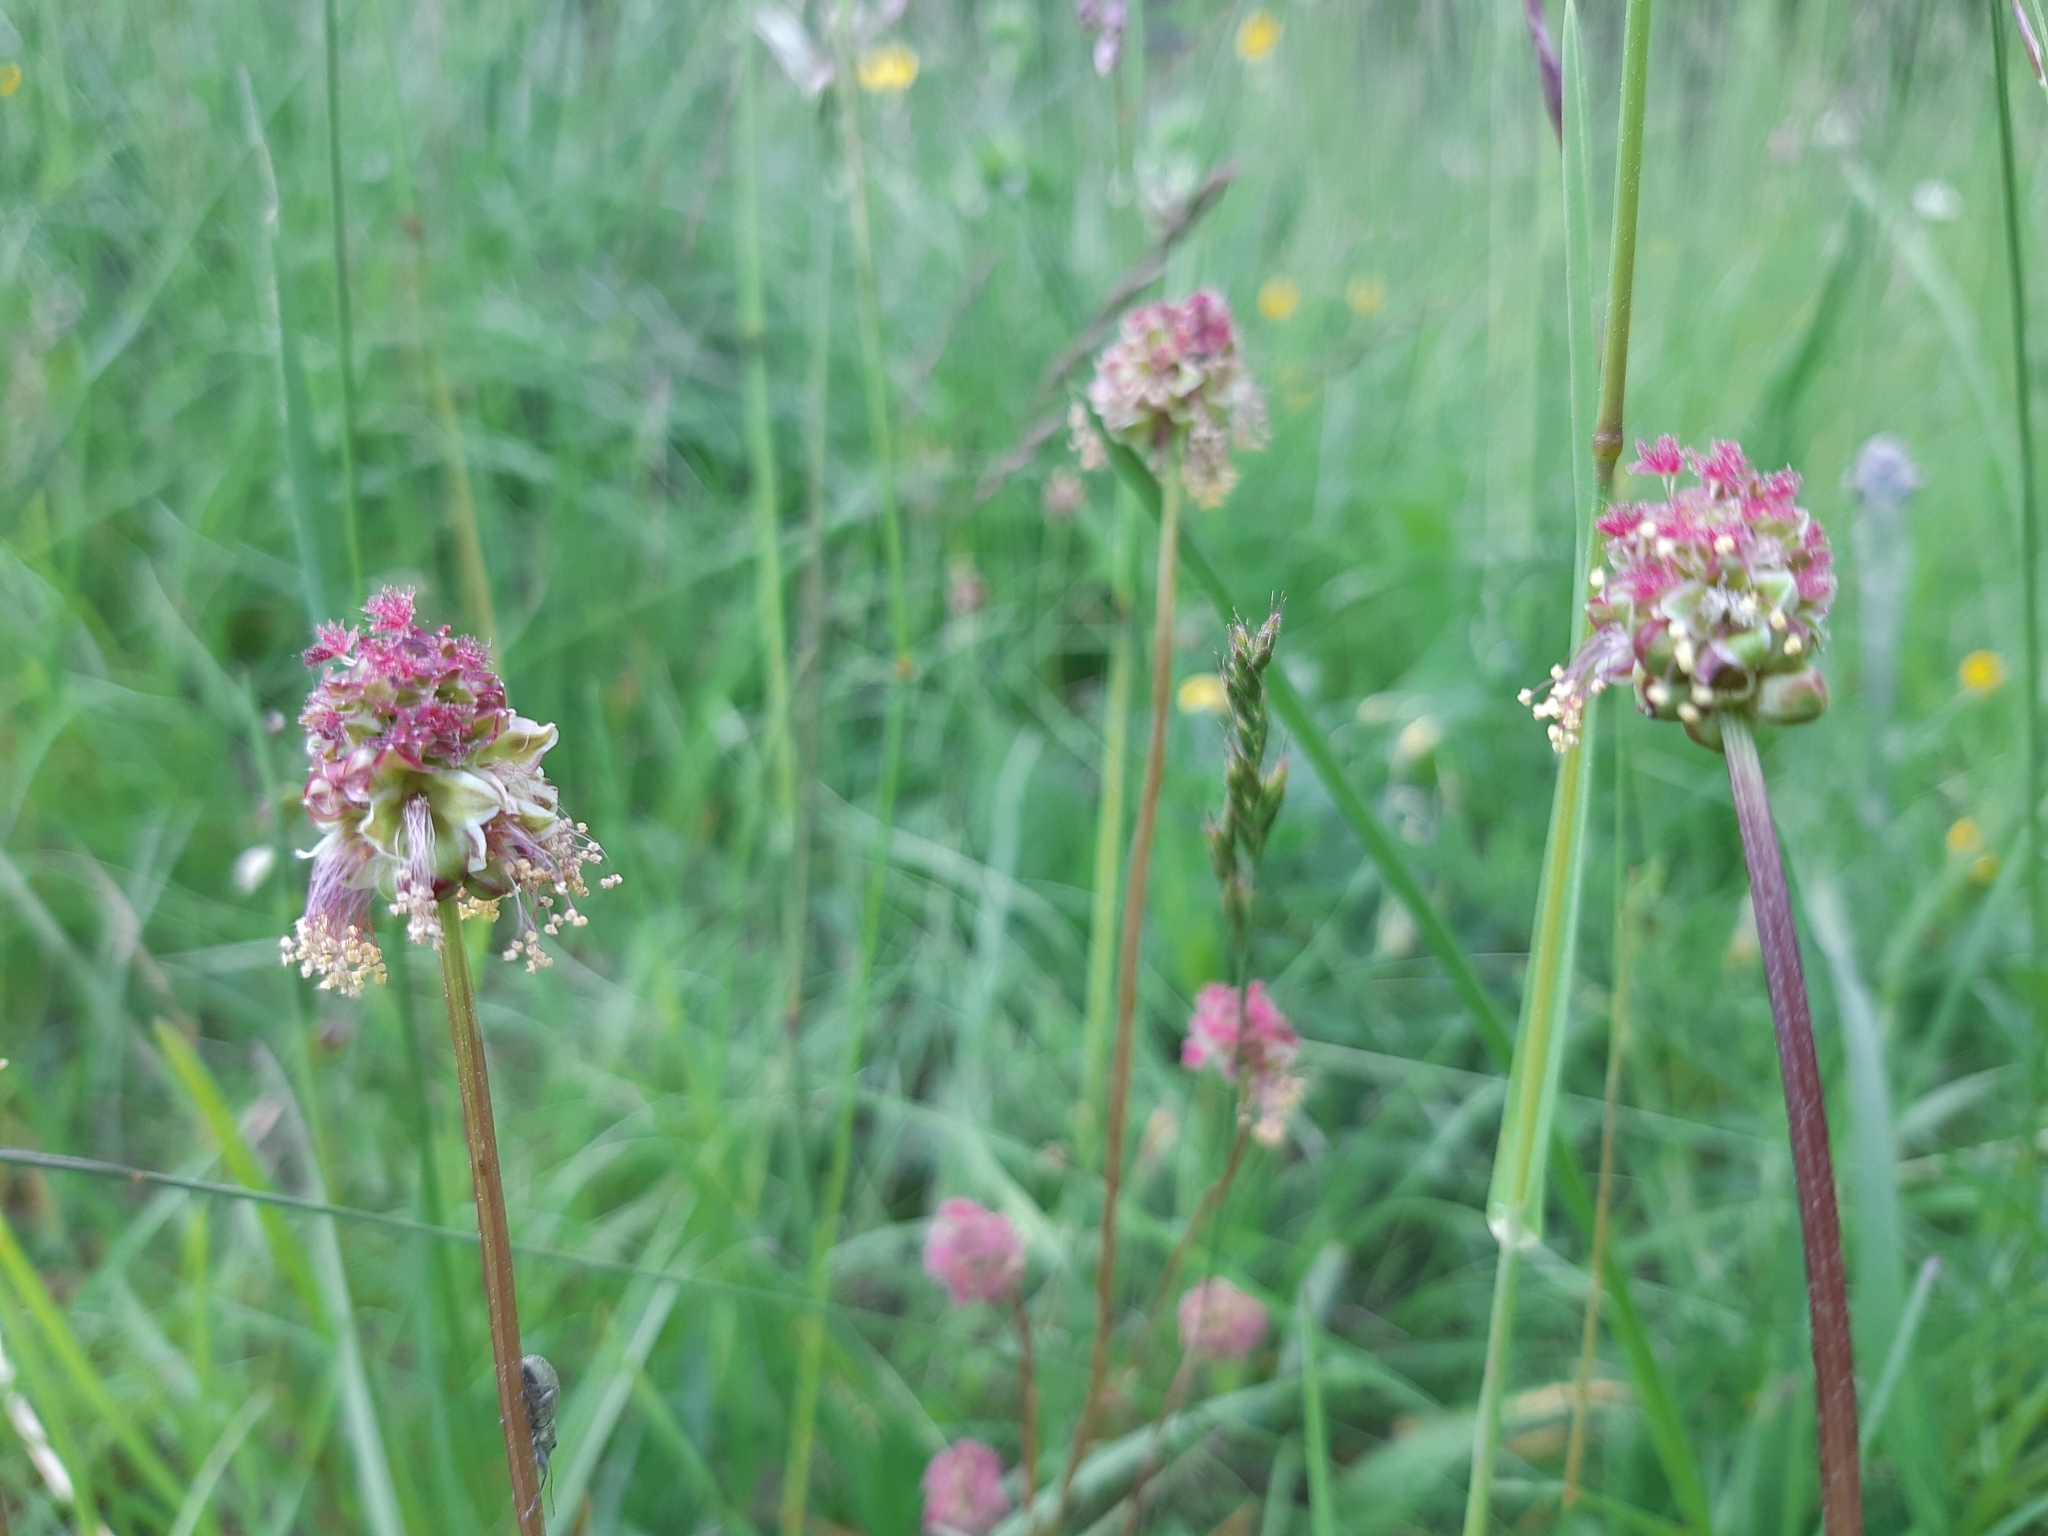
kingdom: Plantae
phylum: Tracheophyta
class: Magnoliopsida
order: Rosales
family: Rosaceae
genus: Poterium
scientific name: Poterium sanguisorba
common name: Salad burnet
